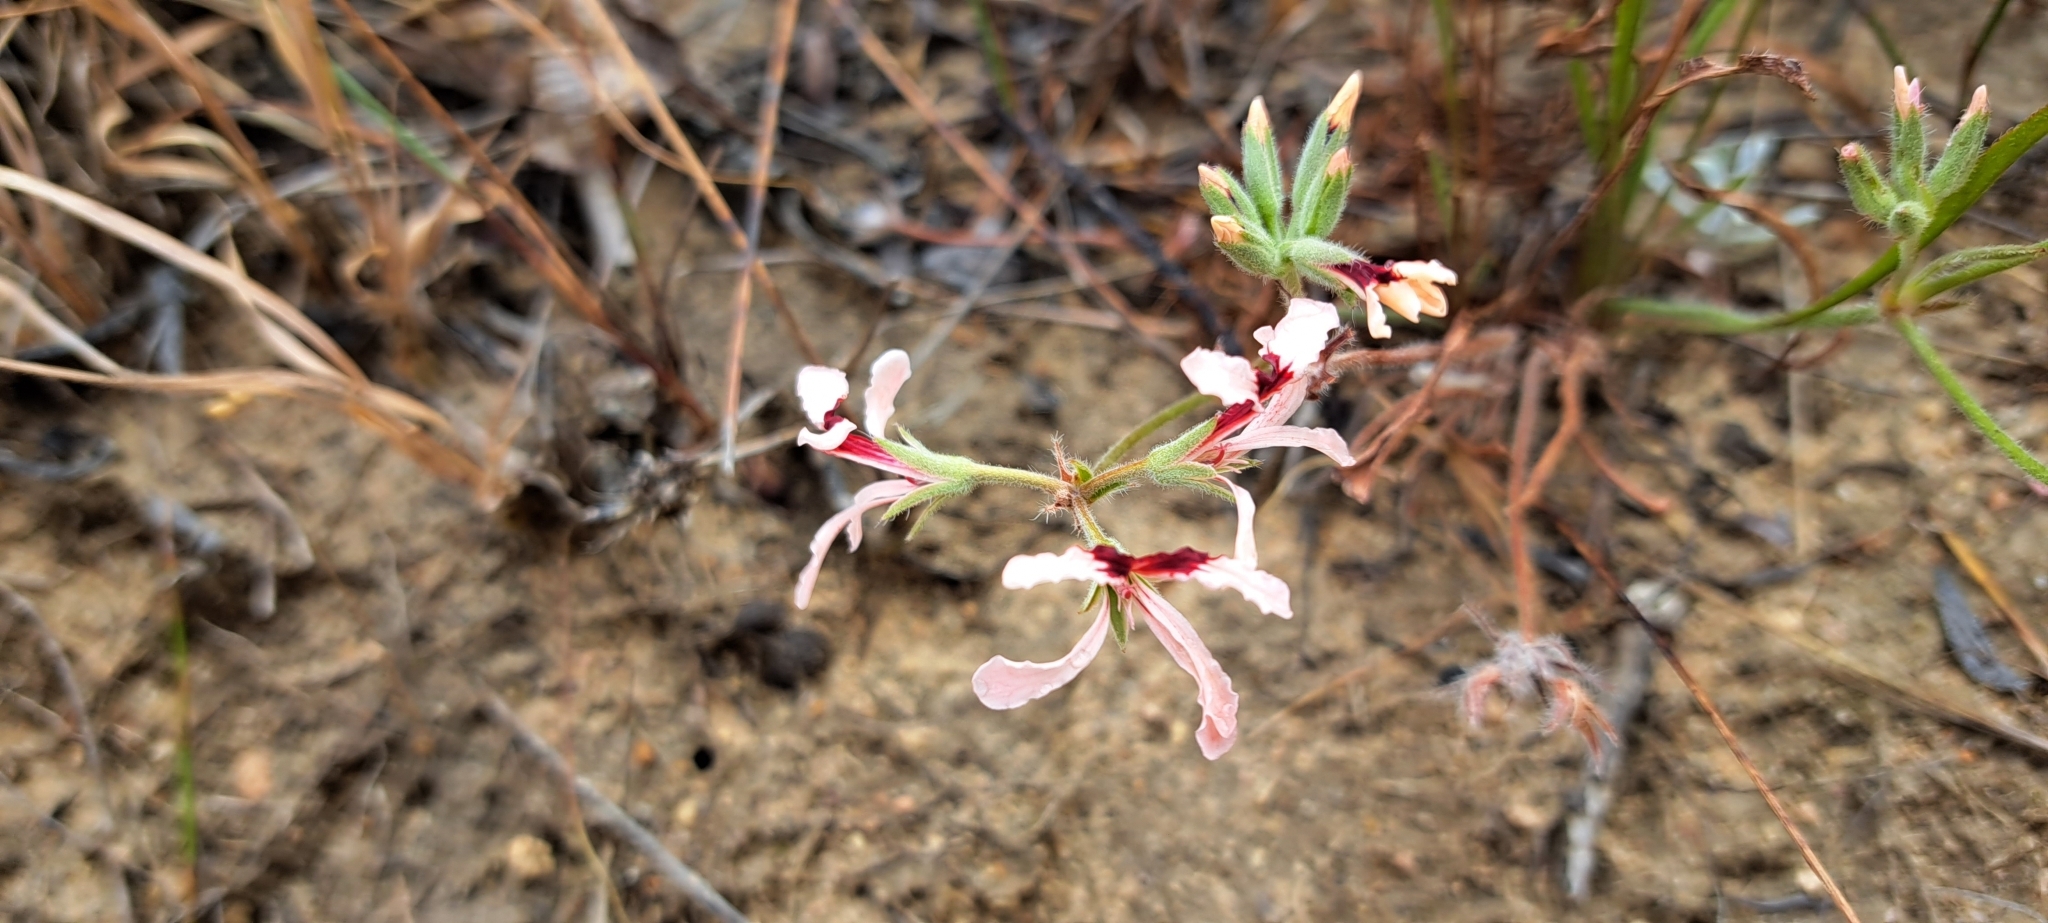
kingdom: Plantae
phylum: Tracheophyta
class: Magnoliopsida
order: Geraniales
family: Geraniaceae
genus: Pelargonium
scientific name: Pelargonium longifolium
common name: Bearded pelargonium
